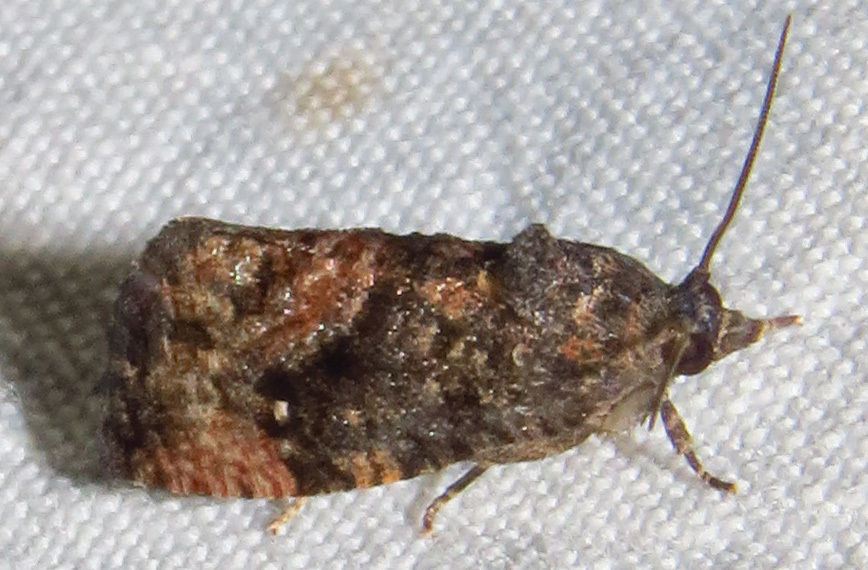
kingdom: Animalia
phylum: Arthropoda
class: Insecta
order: Lepidoptera
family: Tortricidae
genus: Gymnandrosoma
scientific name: Gymnandrosoma punctidiscanum
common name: Dotted ecdytolopha moth
